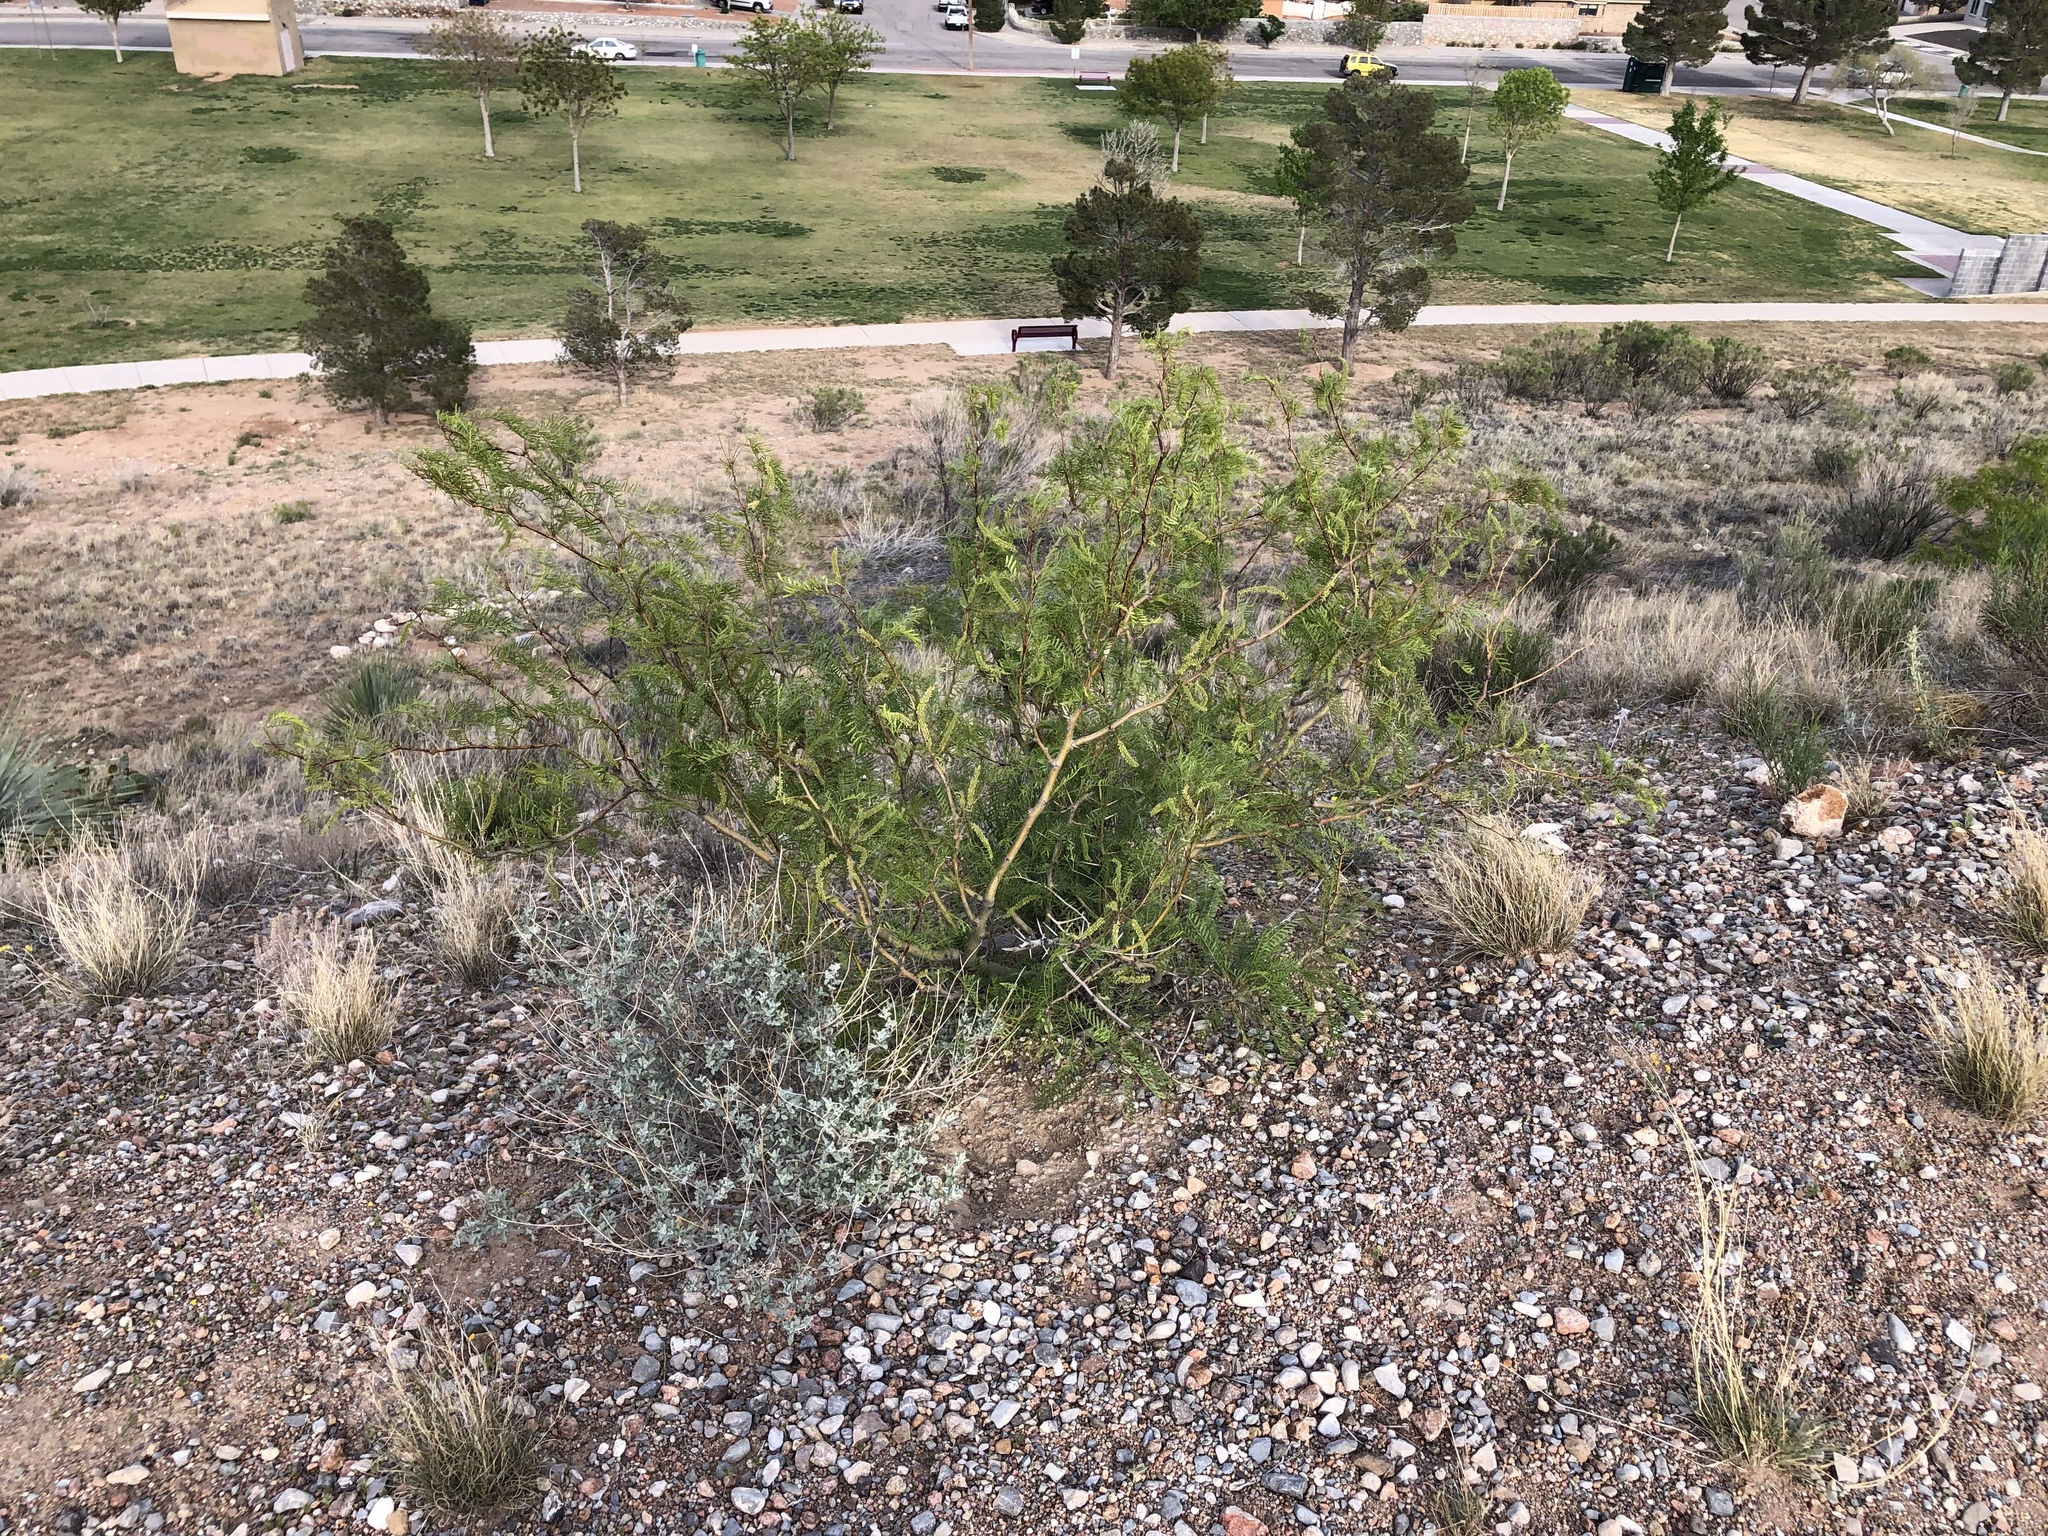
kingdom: Plantae
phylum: Tracheophyta
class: Magnoliopsida
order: Fabales
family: Fabaceae
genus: Prosopis
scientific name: Prosopis glandulosa
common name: Honey mesquite
